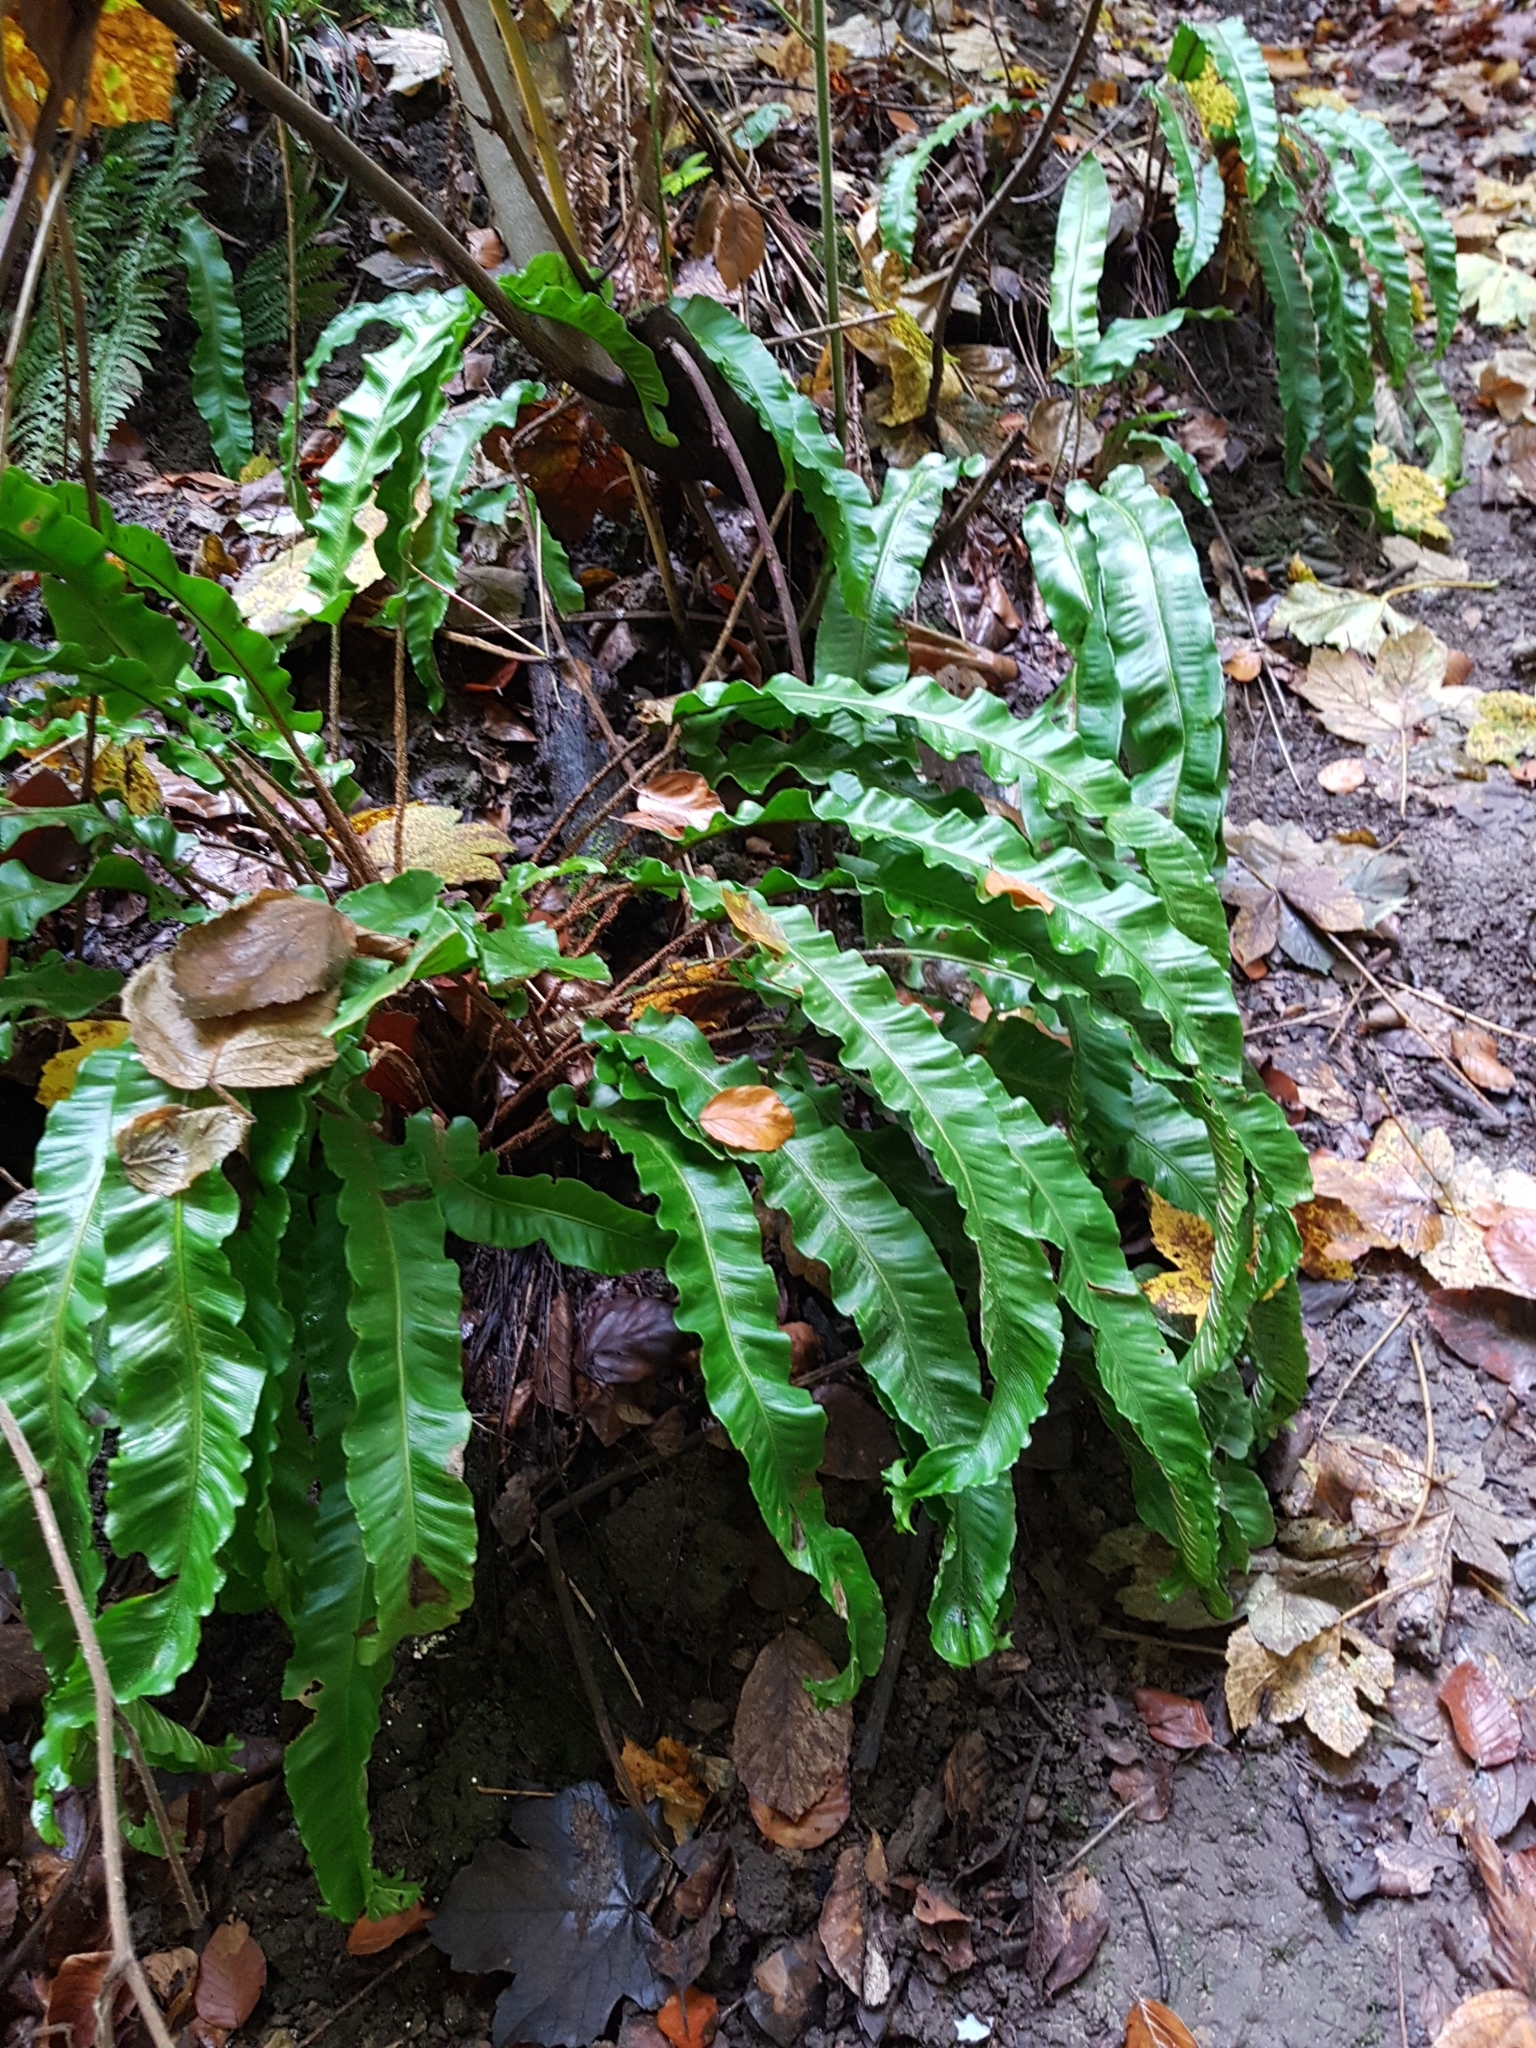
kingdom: Plantae
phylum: Tracheophyta
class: Polypodiopsida
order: Polypodiales
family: Aspleniaceae
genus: Asplenium
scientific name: Asplenium scolopendrium
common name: Hart's-tongue fern
